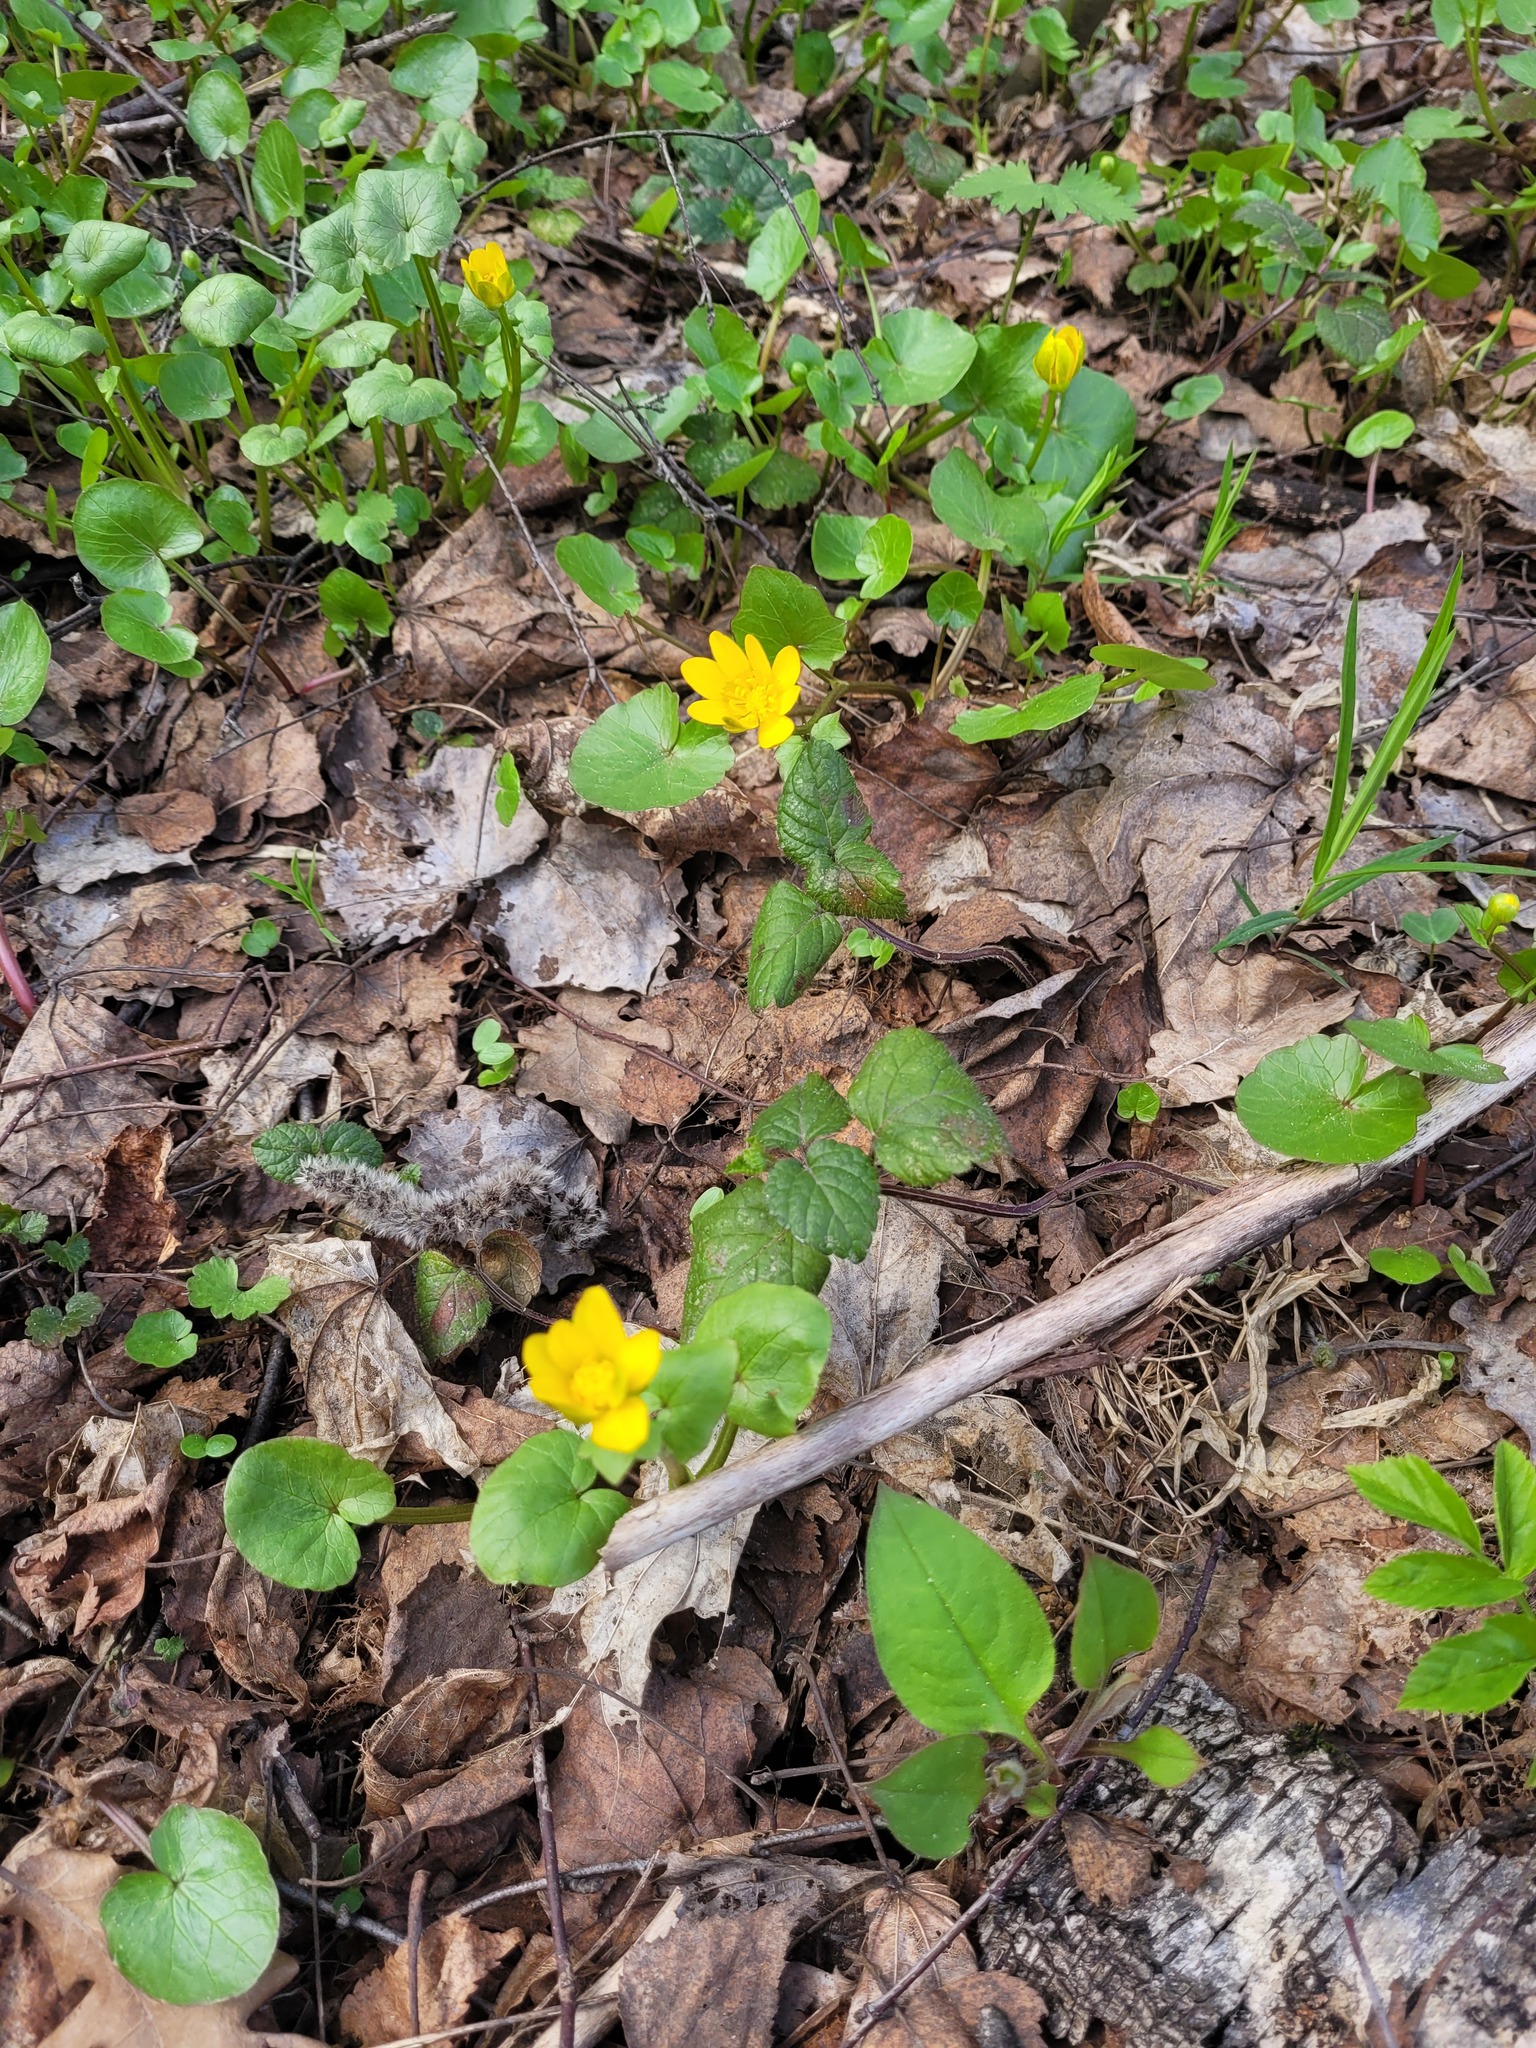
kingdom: Plantae
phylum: Tracheophyta
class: Magnoliopsida
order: Ranunculales
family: Ranunculaceae
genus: Ficaria
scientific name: Ficaria verna
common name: Lesser celandine
